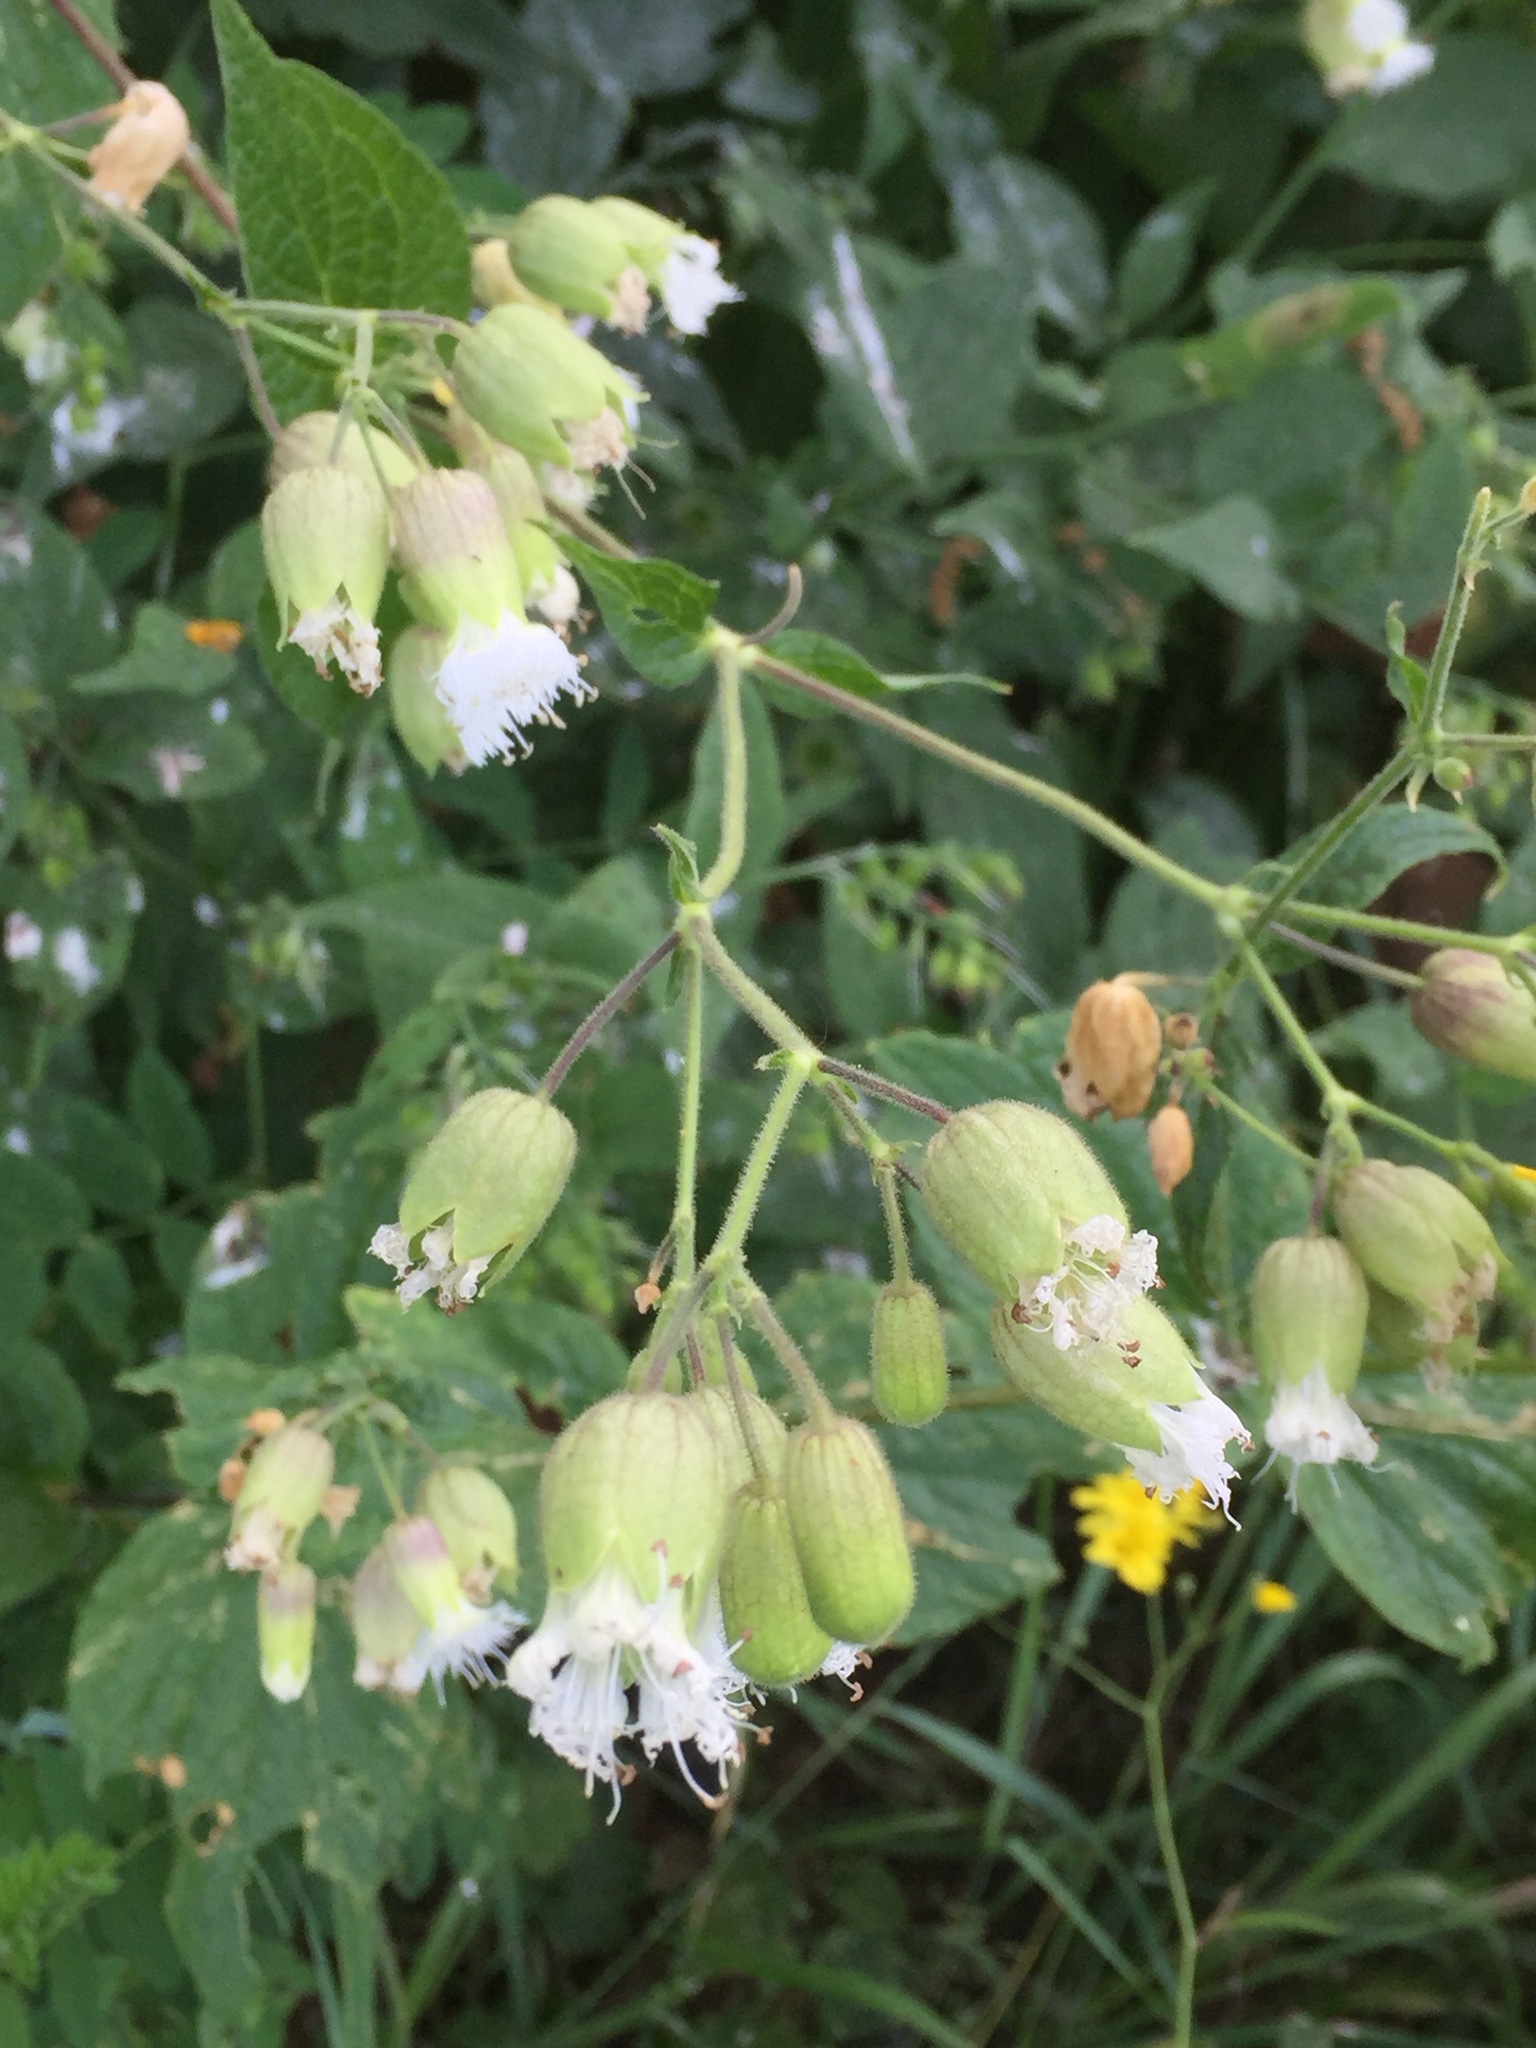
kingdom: Plantae
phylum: Tracheophyta
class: Magnoliopsida
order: Caryophyllales
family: Caryophyllaceae
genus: Silene
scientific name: Silene
